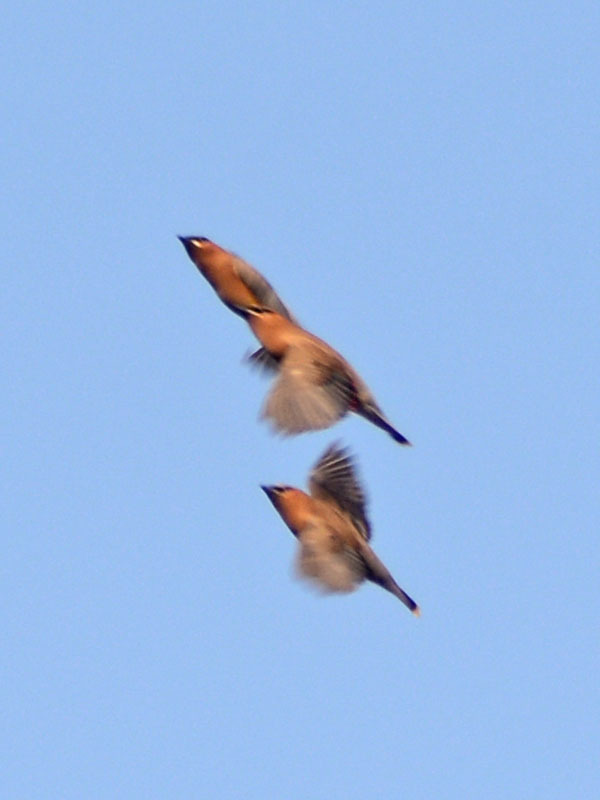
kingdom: Animalia
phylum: Chordata
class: Aves
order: Passeriformes
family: Bombycillidae
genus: Bombycilla
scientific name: Bombycilla cedrorum
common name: Cedar waxwing
